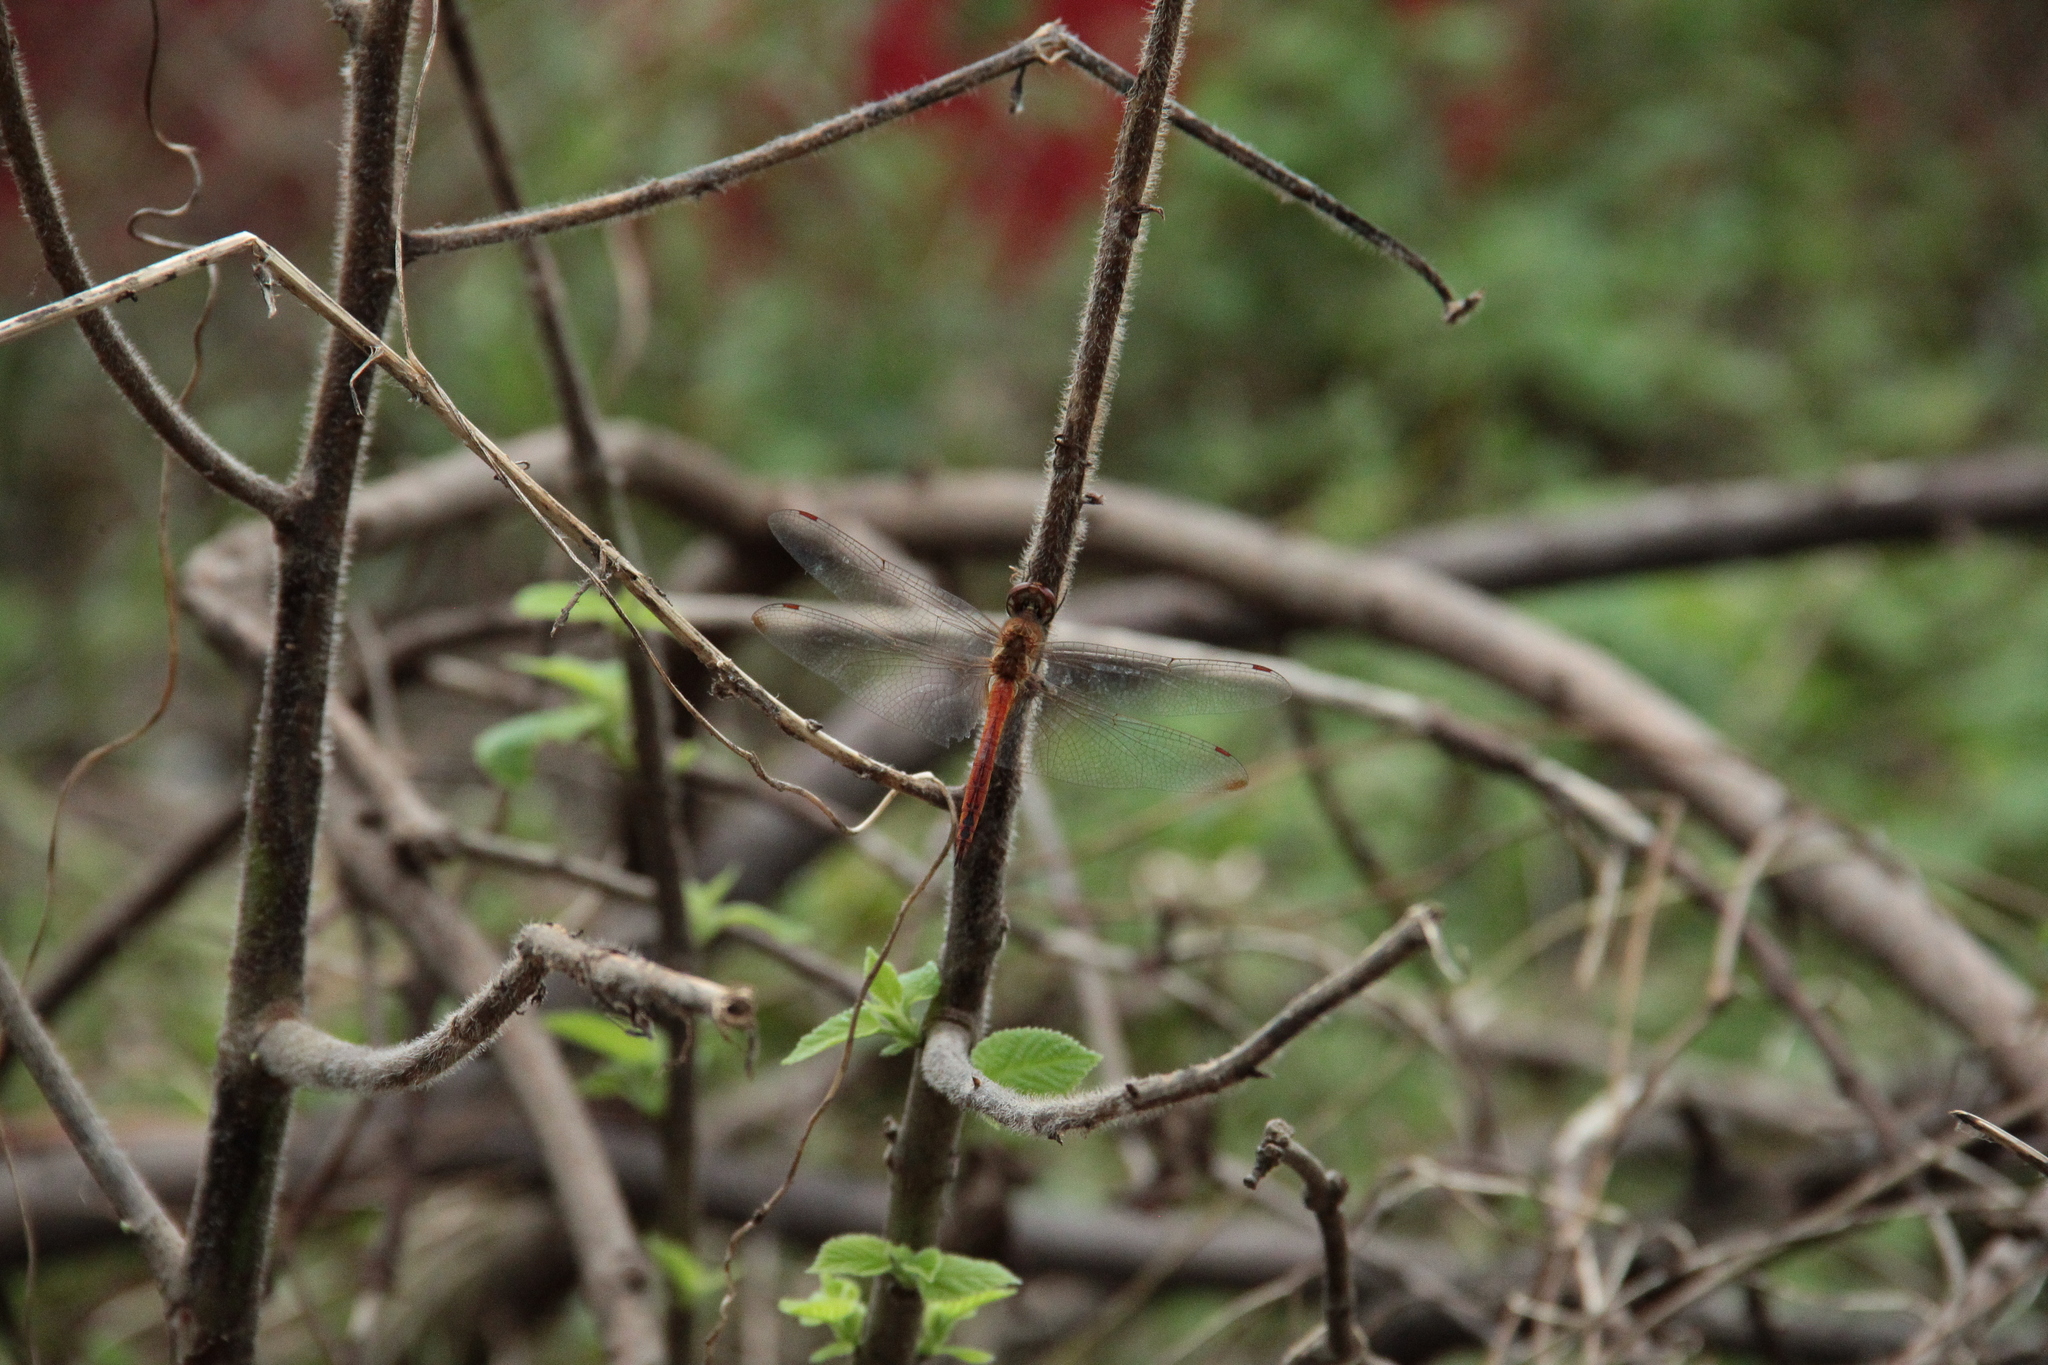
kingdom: Animalia
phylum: Arthropoda
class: Insecta
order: Odonata
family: Libellulidae
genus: Pantala
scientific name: Pantala flavescens
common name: Wandering glider
